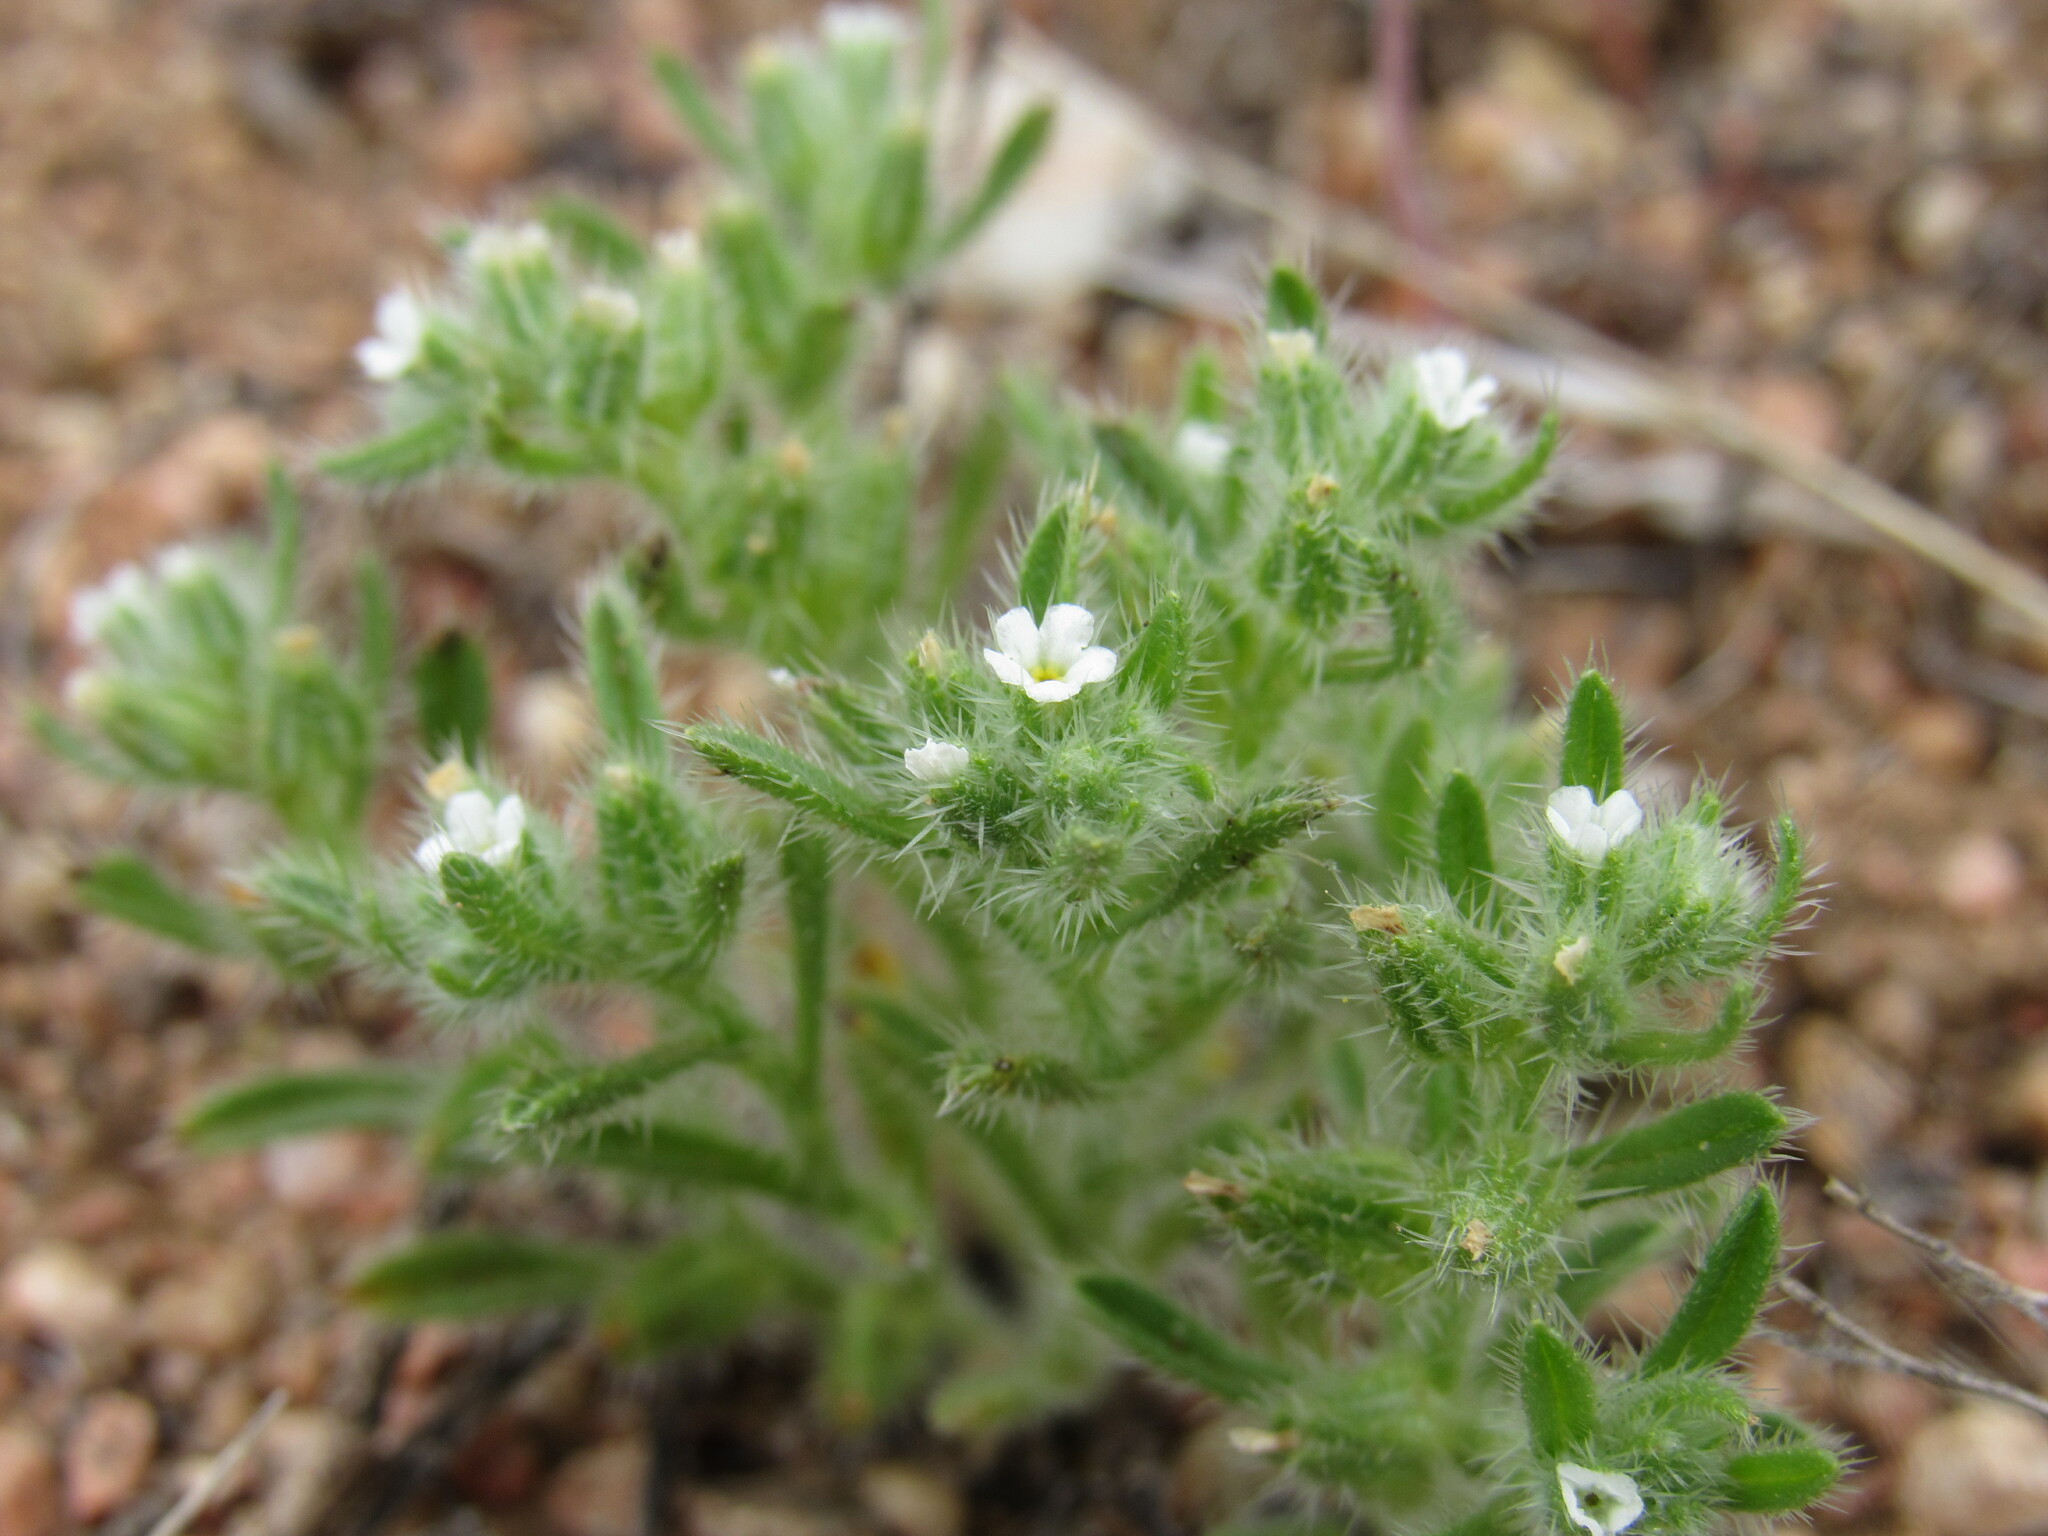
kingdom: Plantae
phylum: Tracheophyta
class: Magnoliopsida
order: Boraginales
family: Boraginaceae
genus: Cryptantha
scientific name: Cryptantha minima
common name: Little cat's-eye
